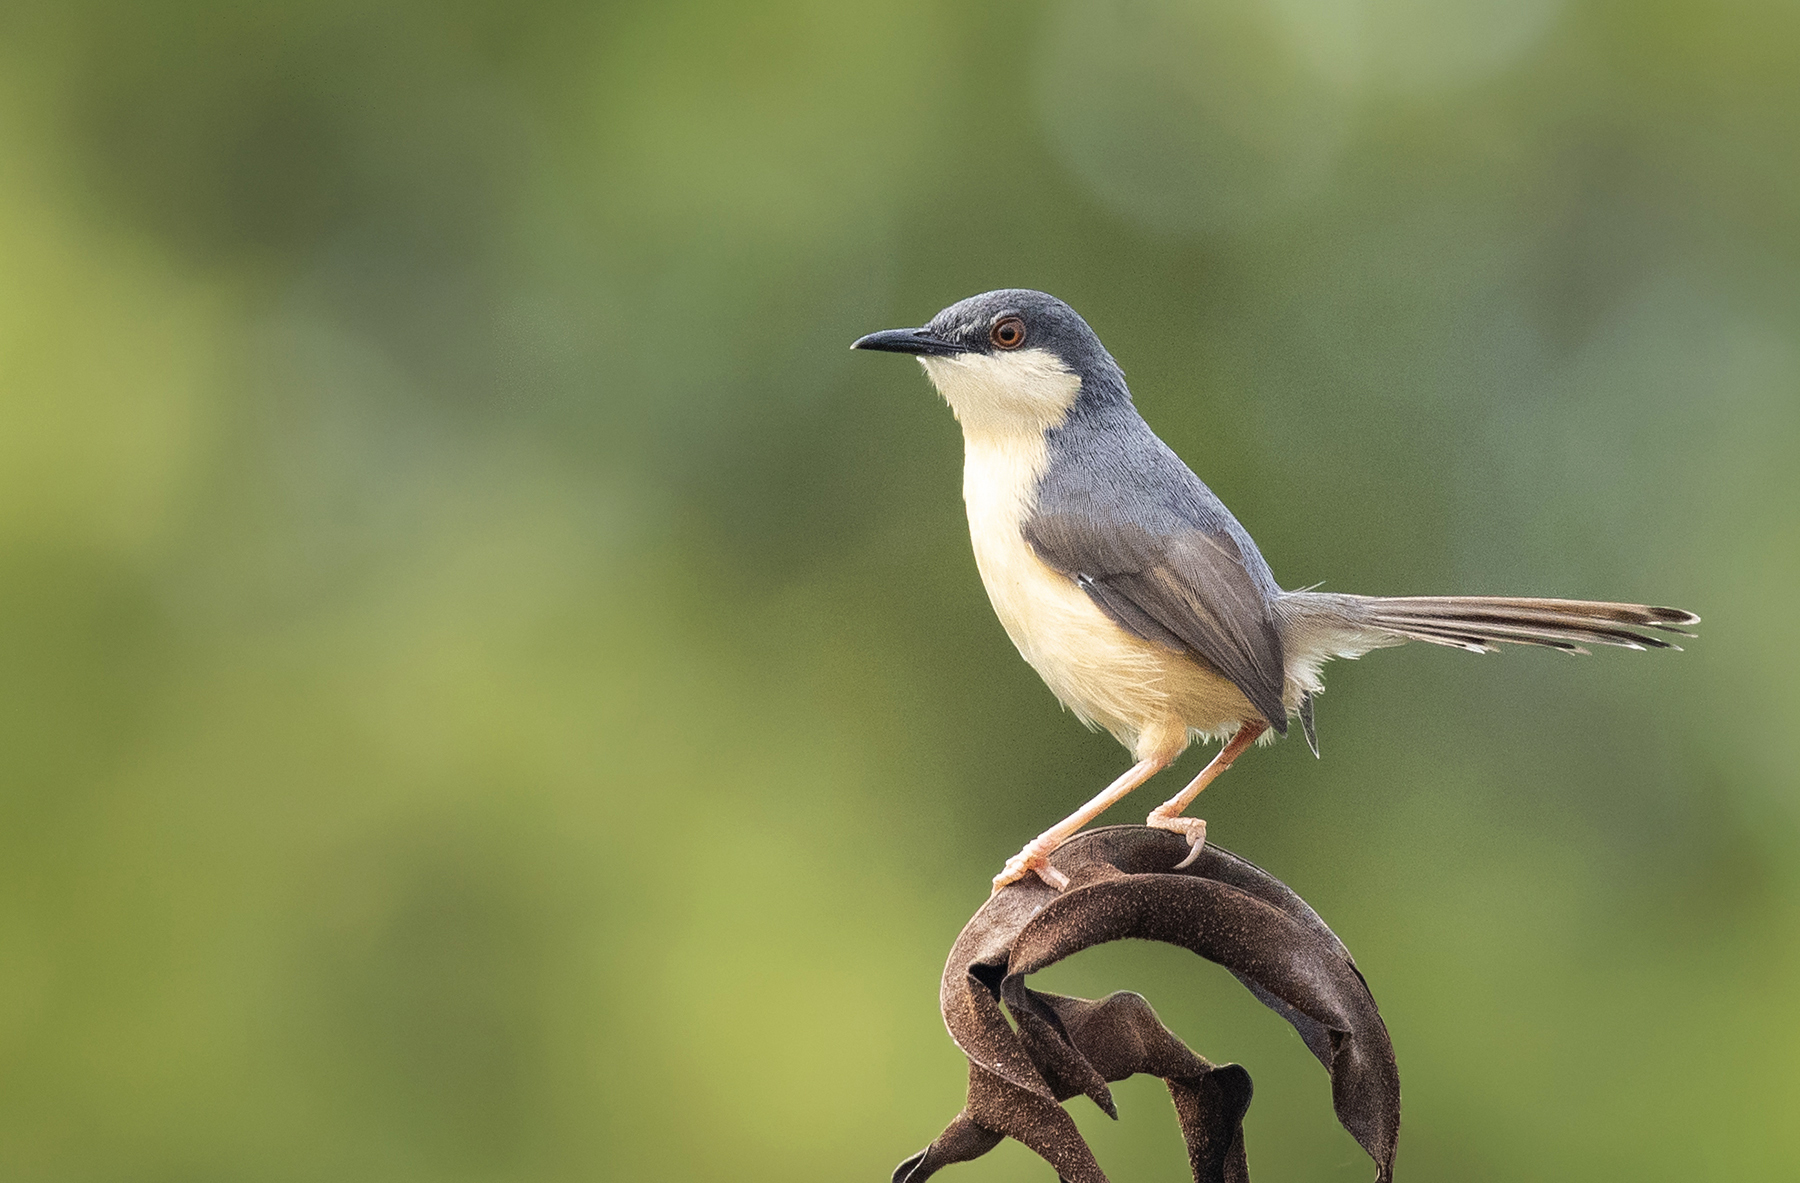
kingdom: Animalia
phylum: Chordata
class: Aves
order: Passeriformes
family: Cisticolidae
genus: Prinia
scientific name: Prinia socialis
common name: Ashy prinia
